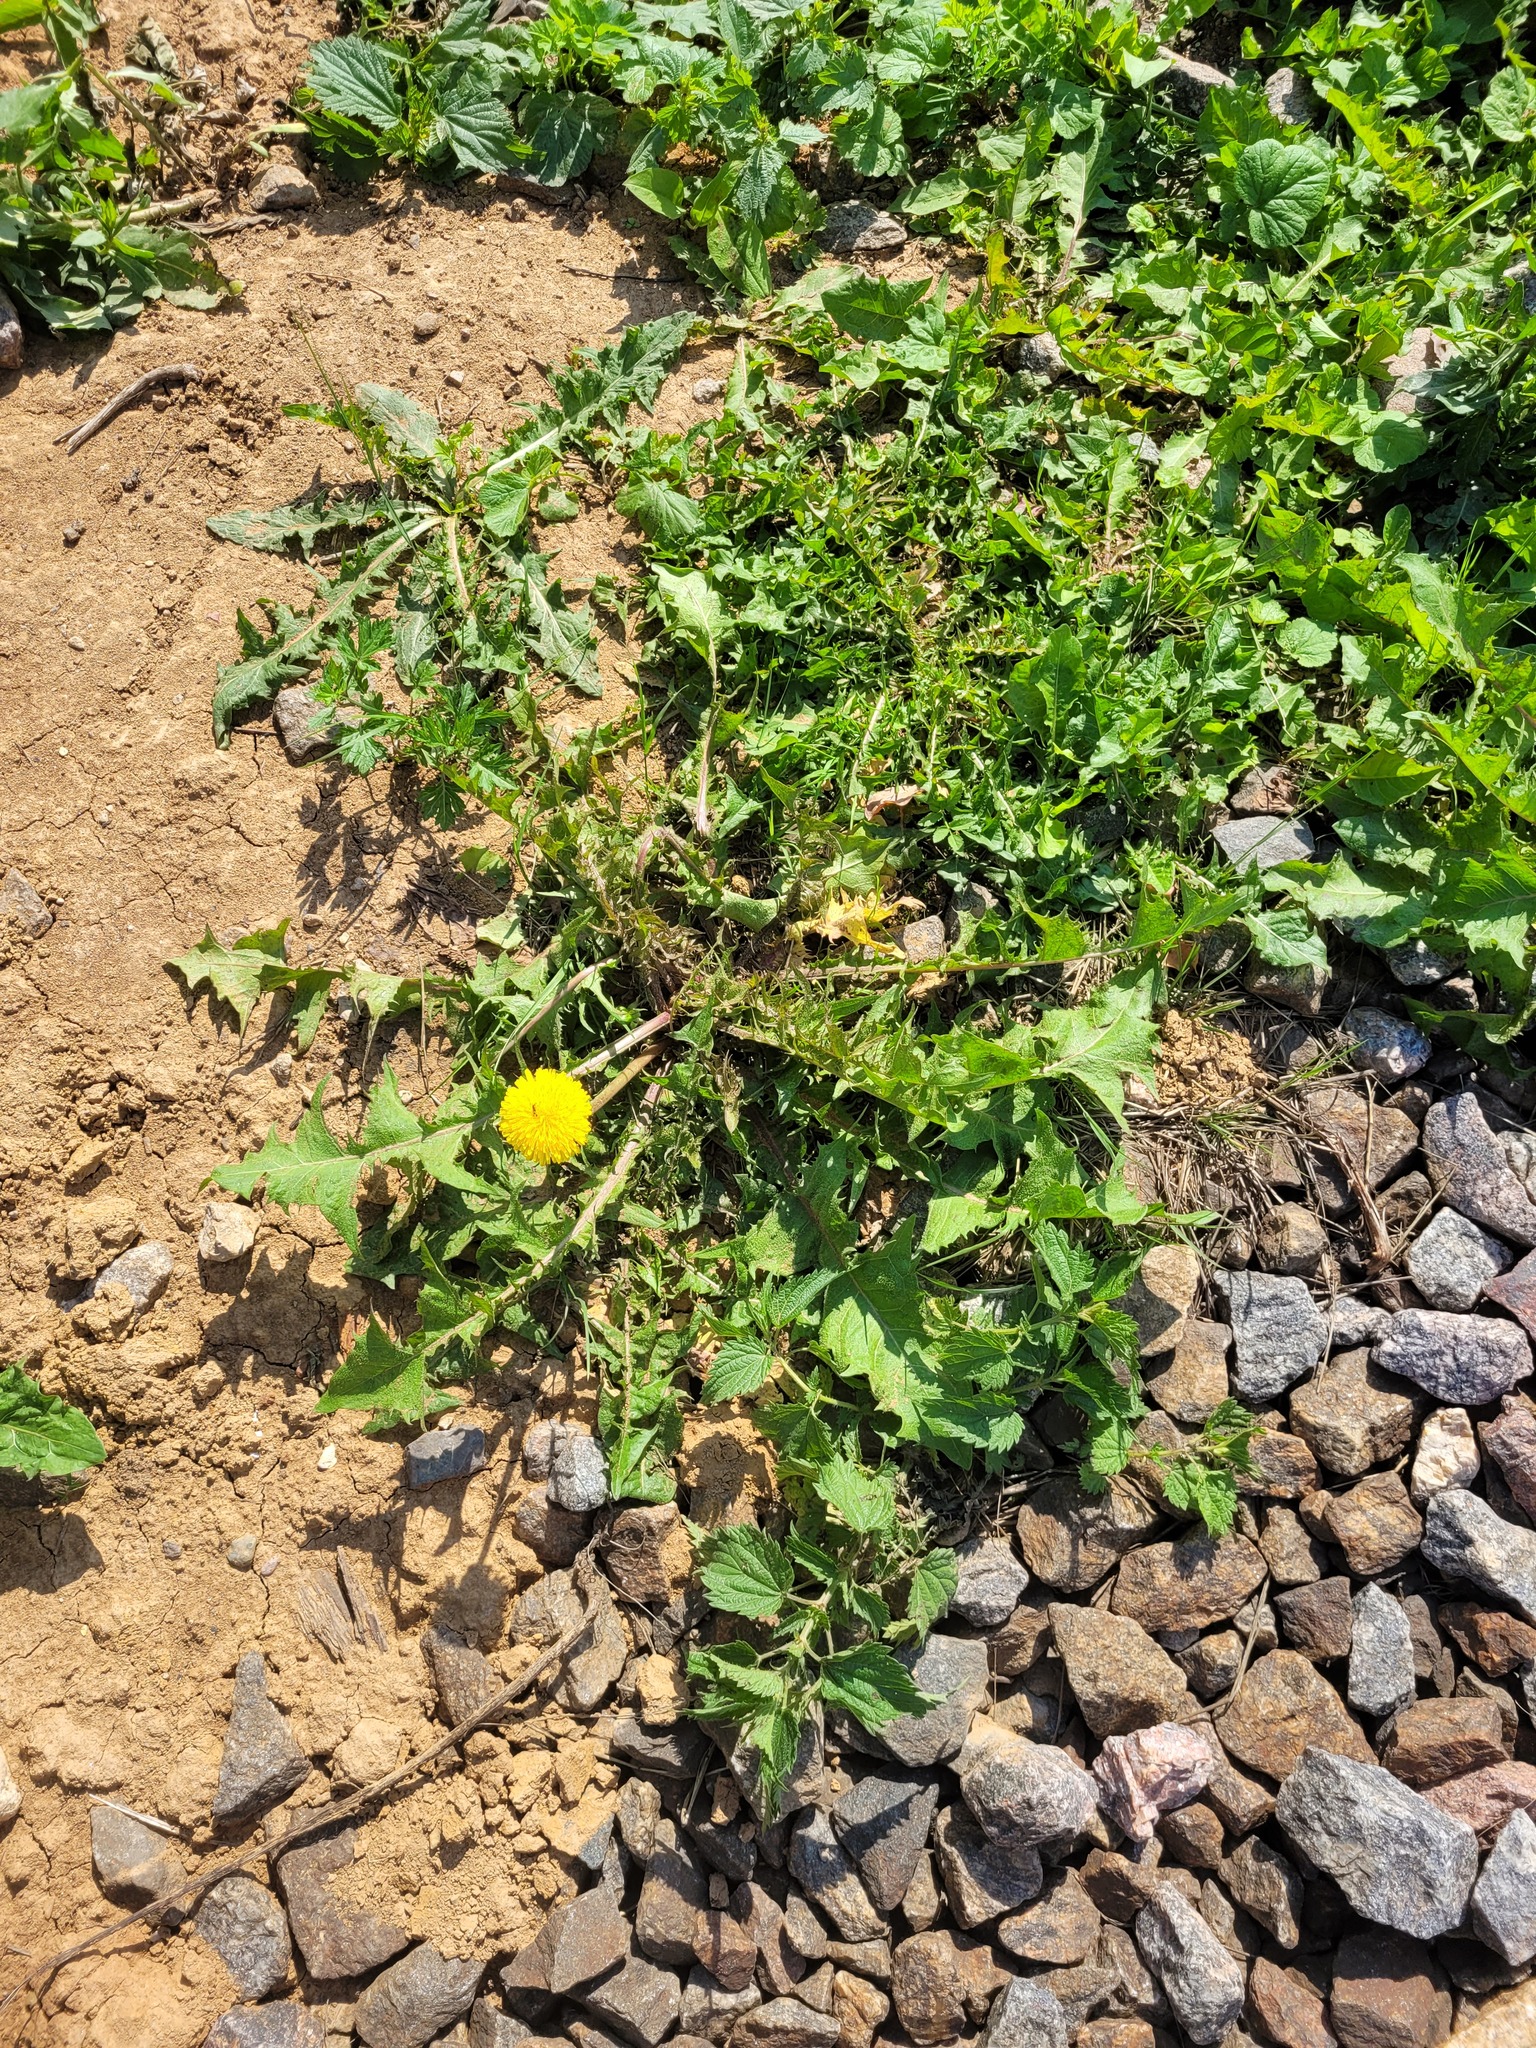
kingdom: Plantae
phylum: Tracheophyta
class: Magnoliopsida
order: Asterales
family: Asteraceae
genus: Taraxacum
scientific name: Taraxacum officinale
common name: Common dandelion
